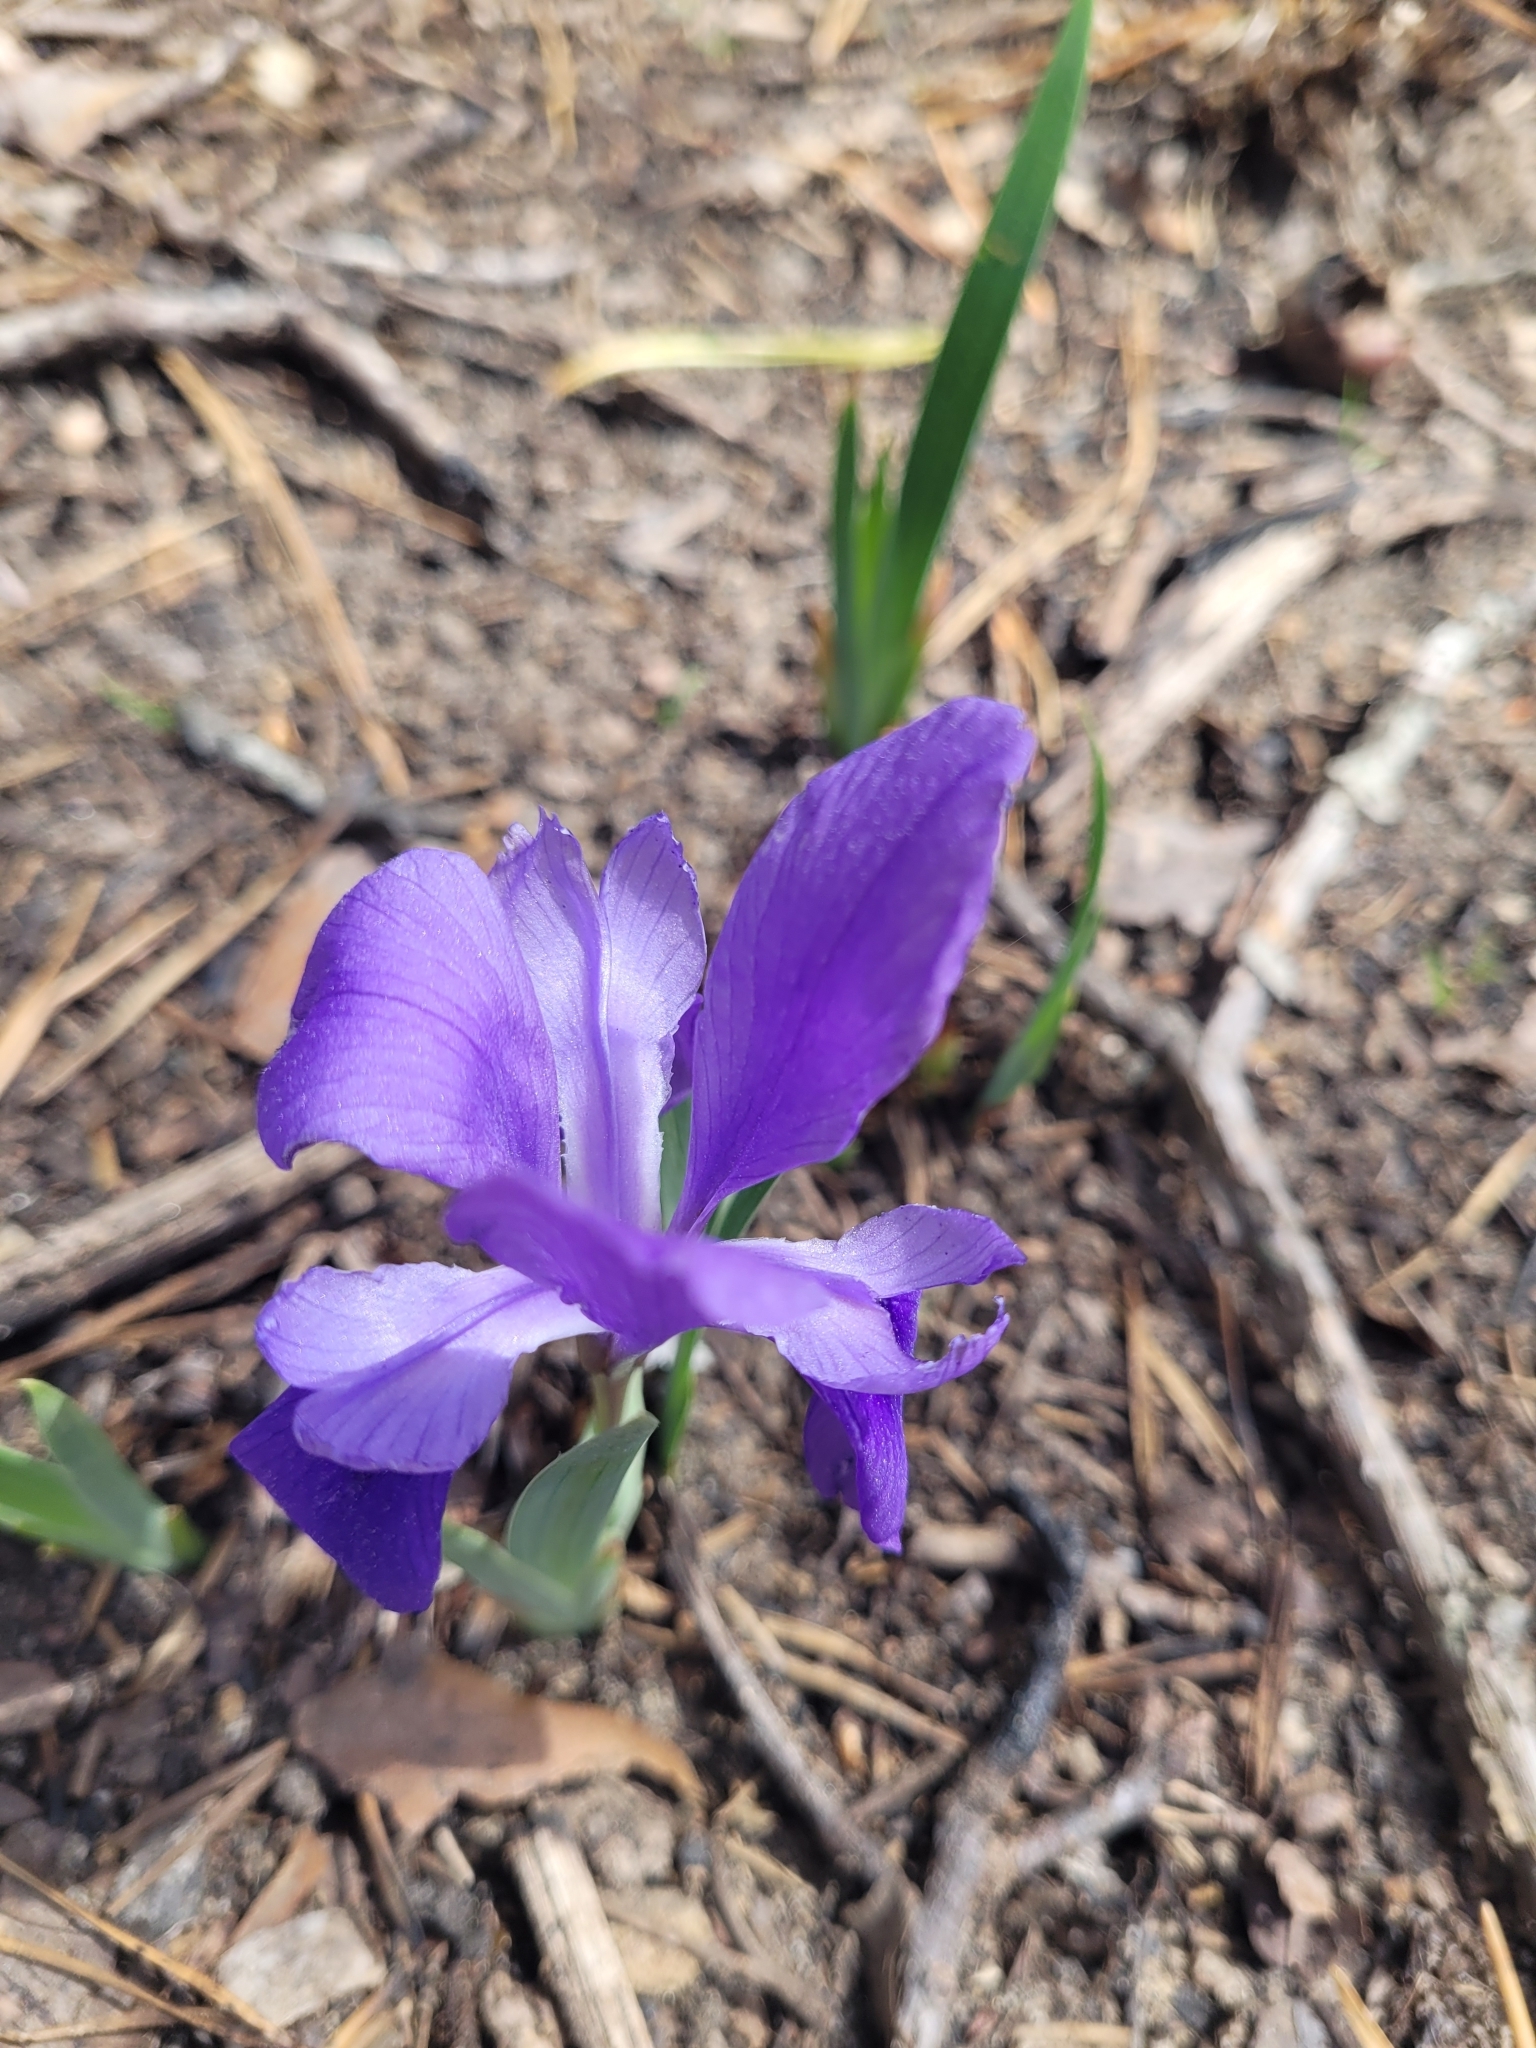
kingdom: Plantae
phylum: Tracheophyta
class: Liliopsida
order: Asparagales
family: Iridaceae
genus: Iris
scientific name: Iris verna
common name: Dwarf iris
